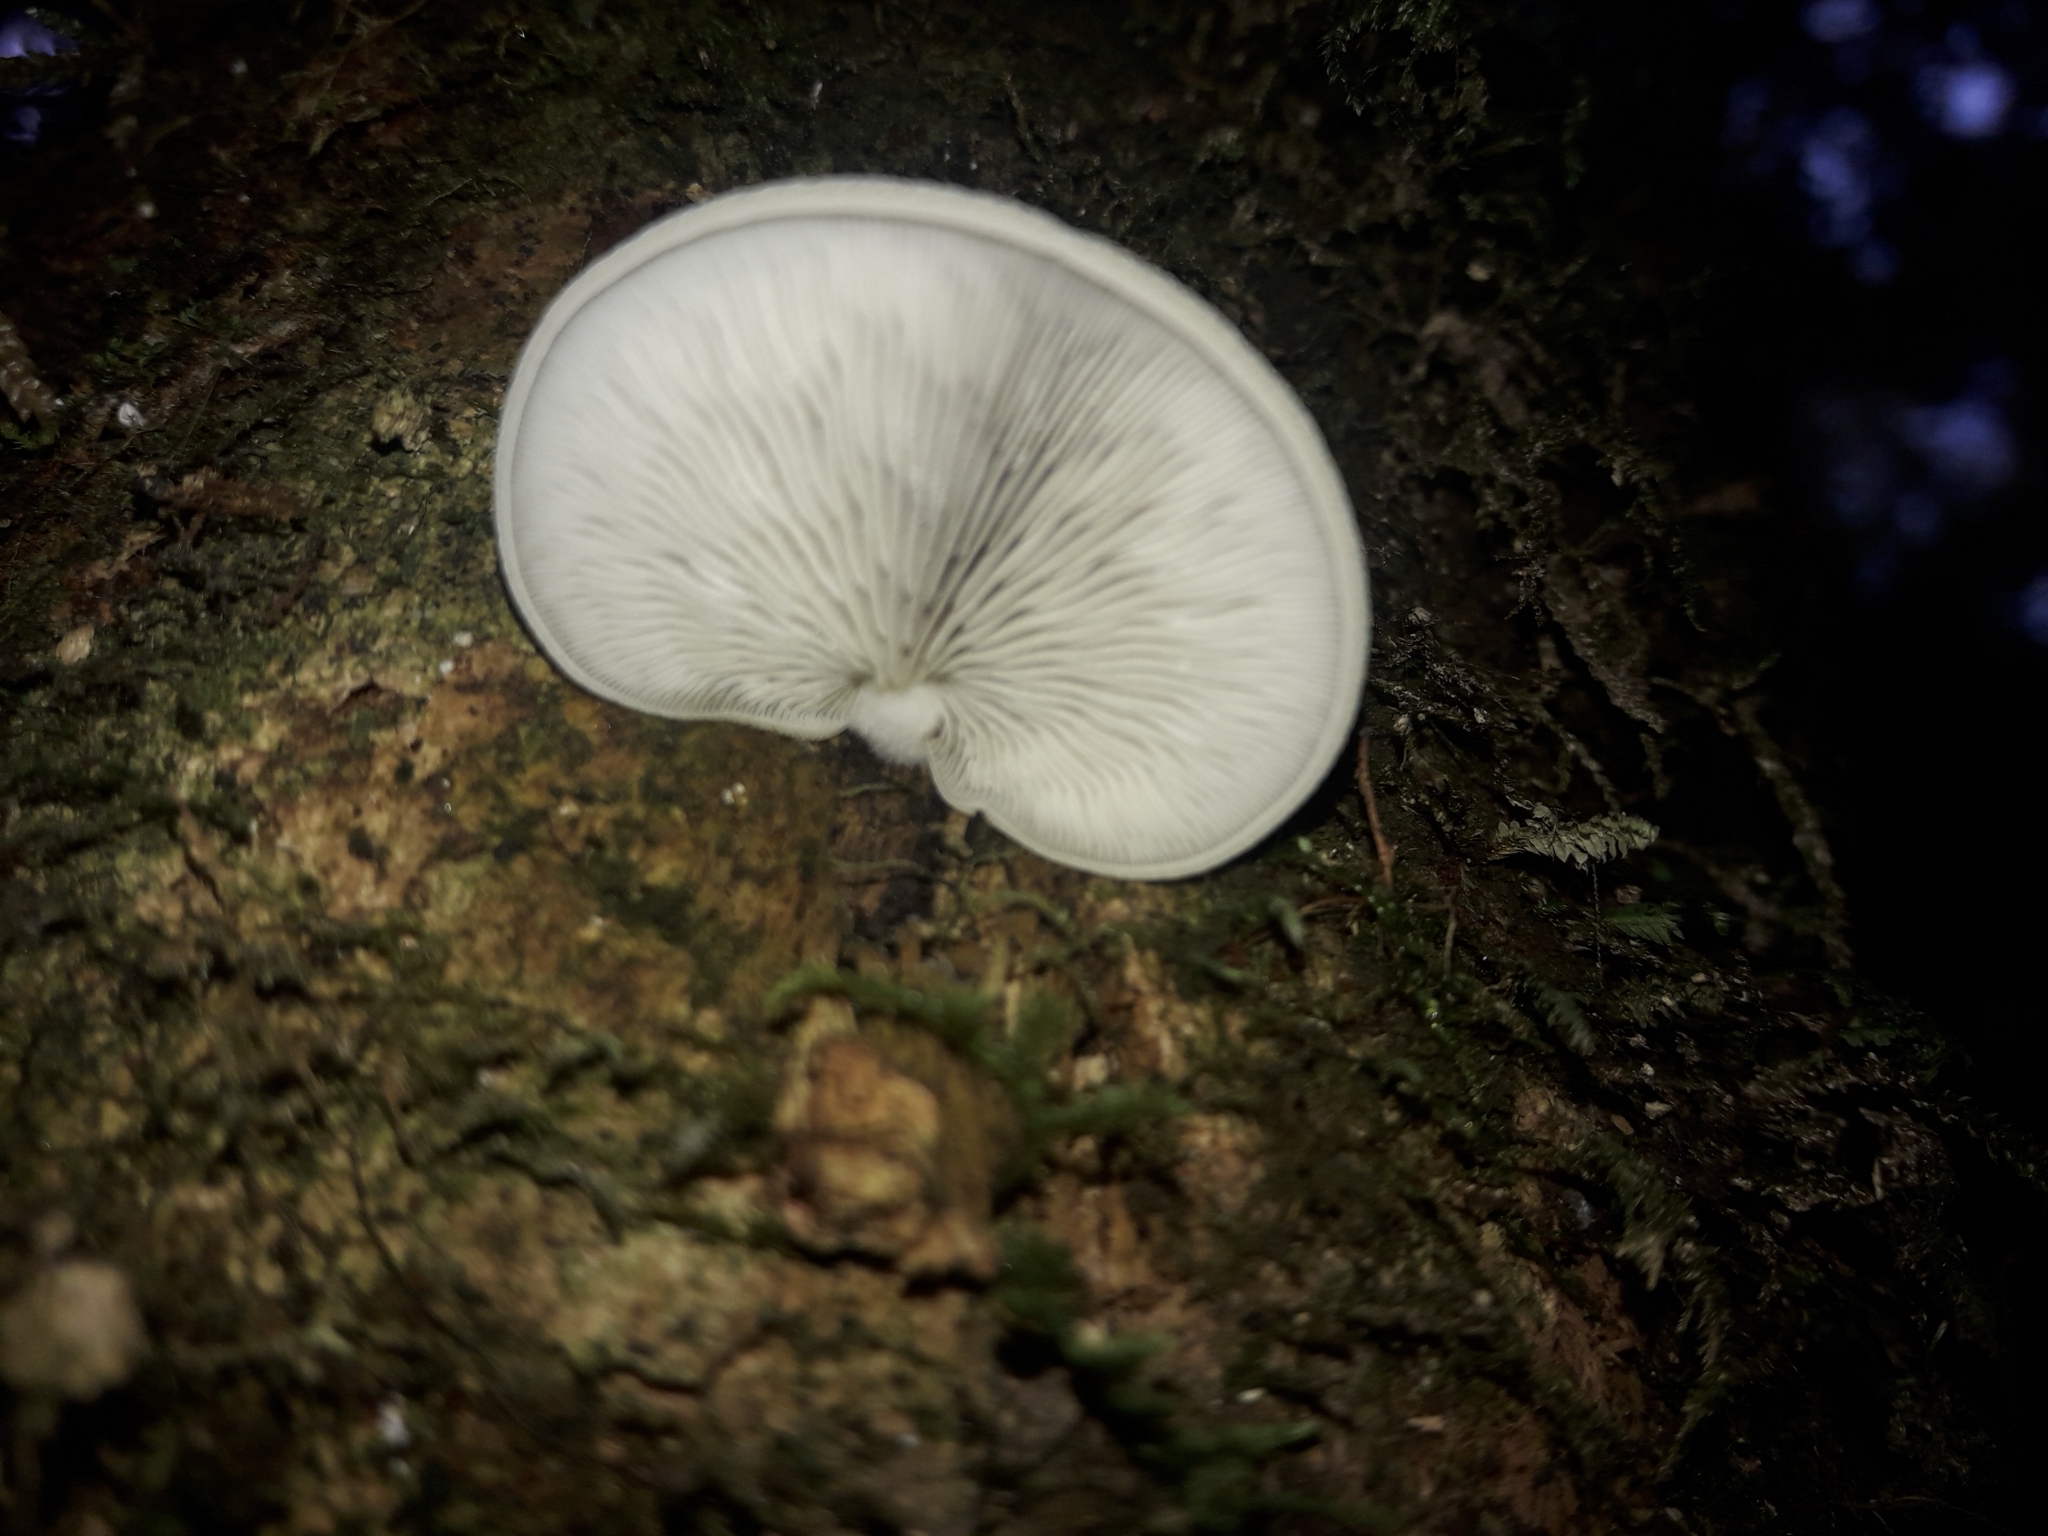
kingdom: Fungi
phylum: Basidiomycota
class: Agaricomycetes
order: Agaricales
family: Tricholomataceae
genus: Conchomyces
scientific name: Conchomyces bursiformis
